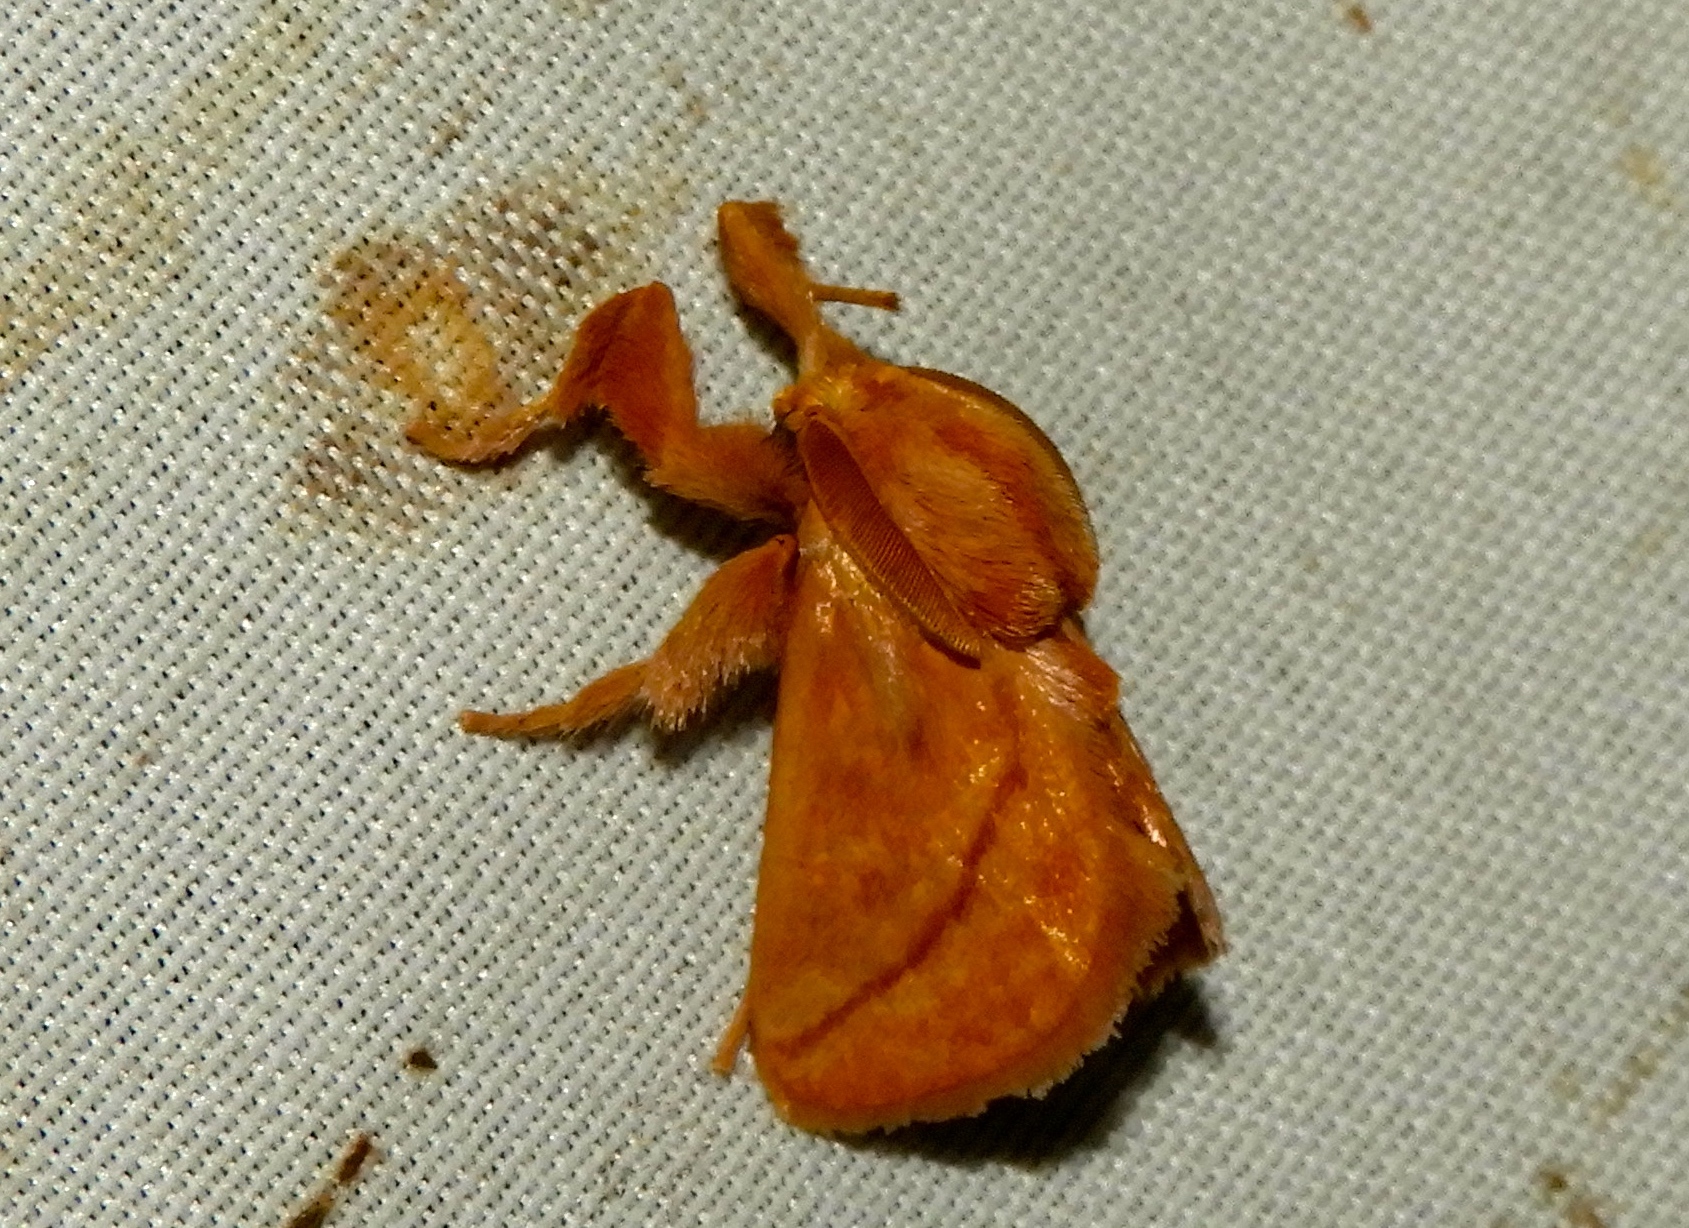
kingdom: Animalia
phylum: Arthropoda
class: Insecta
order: Lepidoptera
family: Limacodidae
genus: Perola
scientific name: Perola clara
